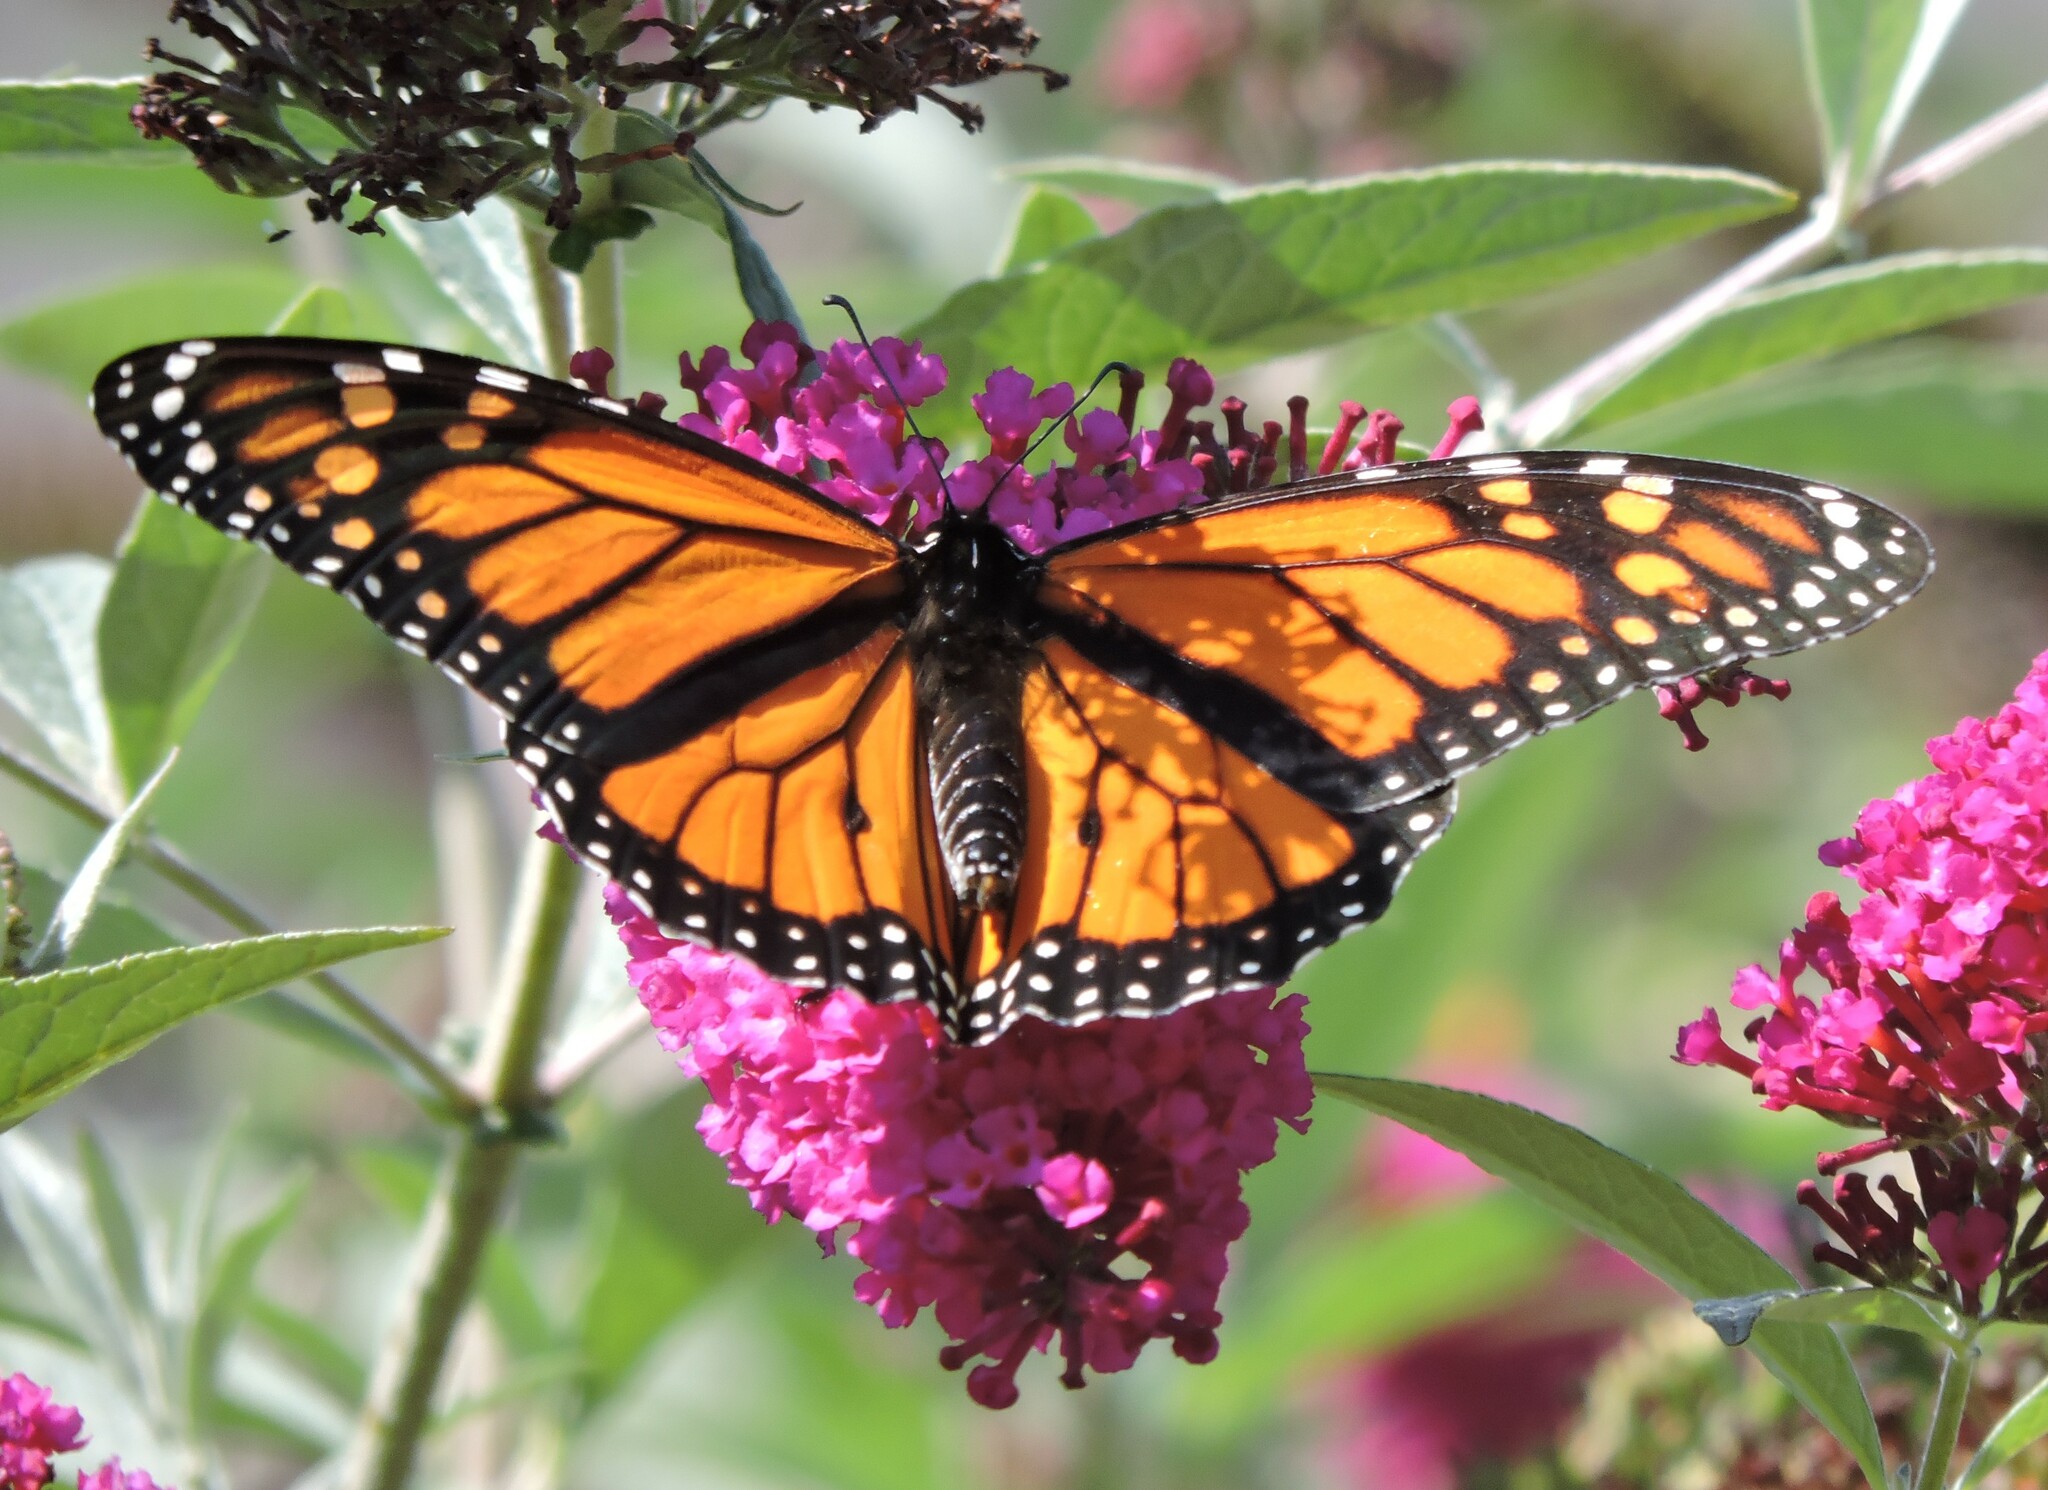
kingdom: Animalia
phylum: Arthropoda
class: Insecta
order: Lepidoptera
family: Nymphalidae
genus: Danaus
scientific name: Danaus plexippus
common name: Monarch
